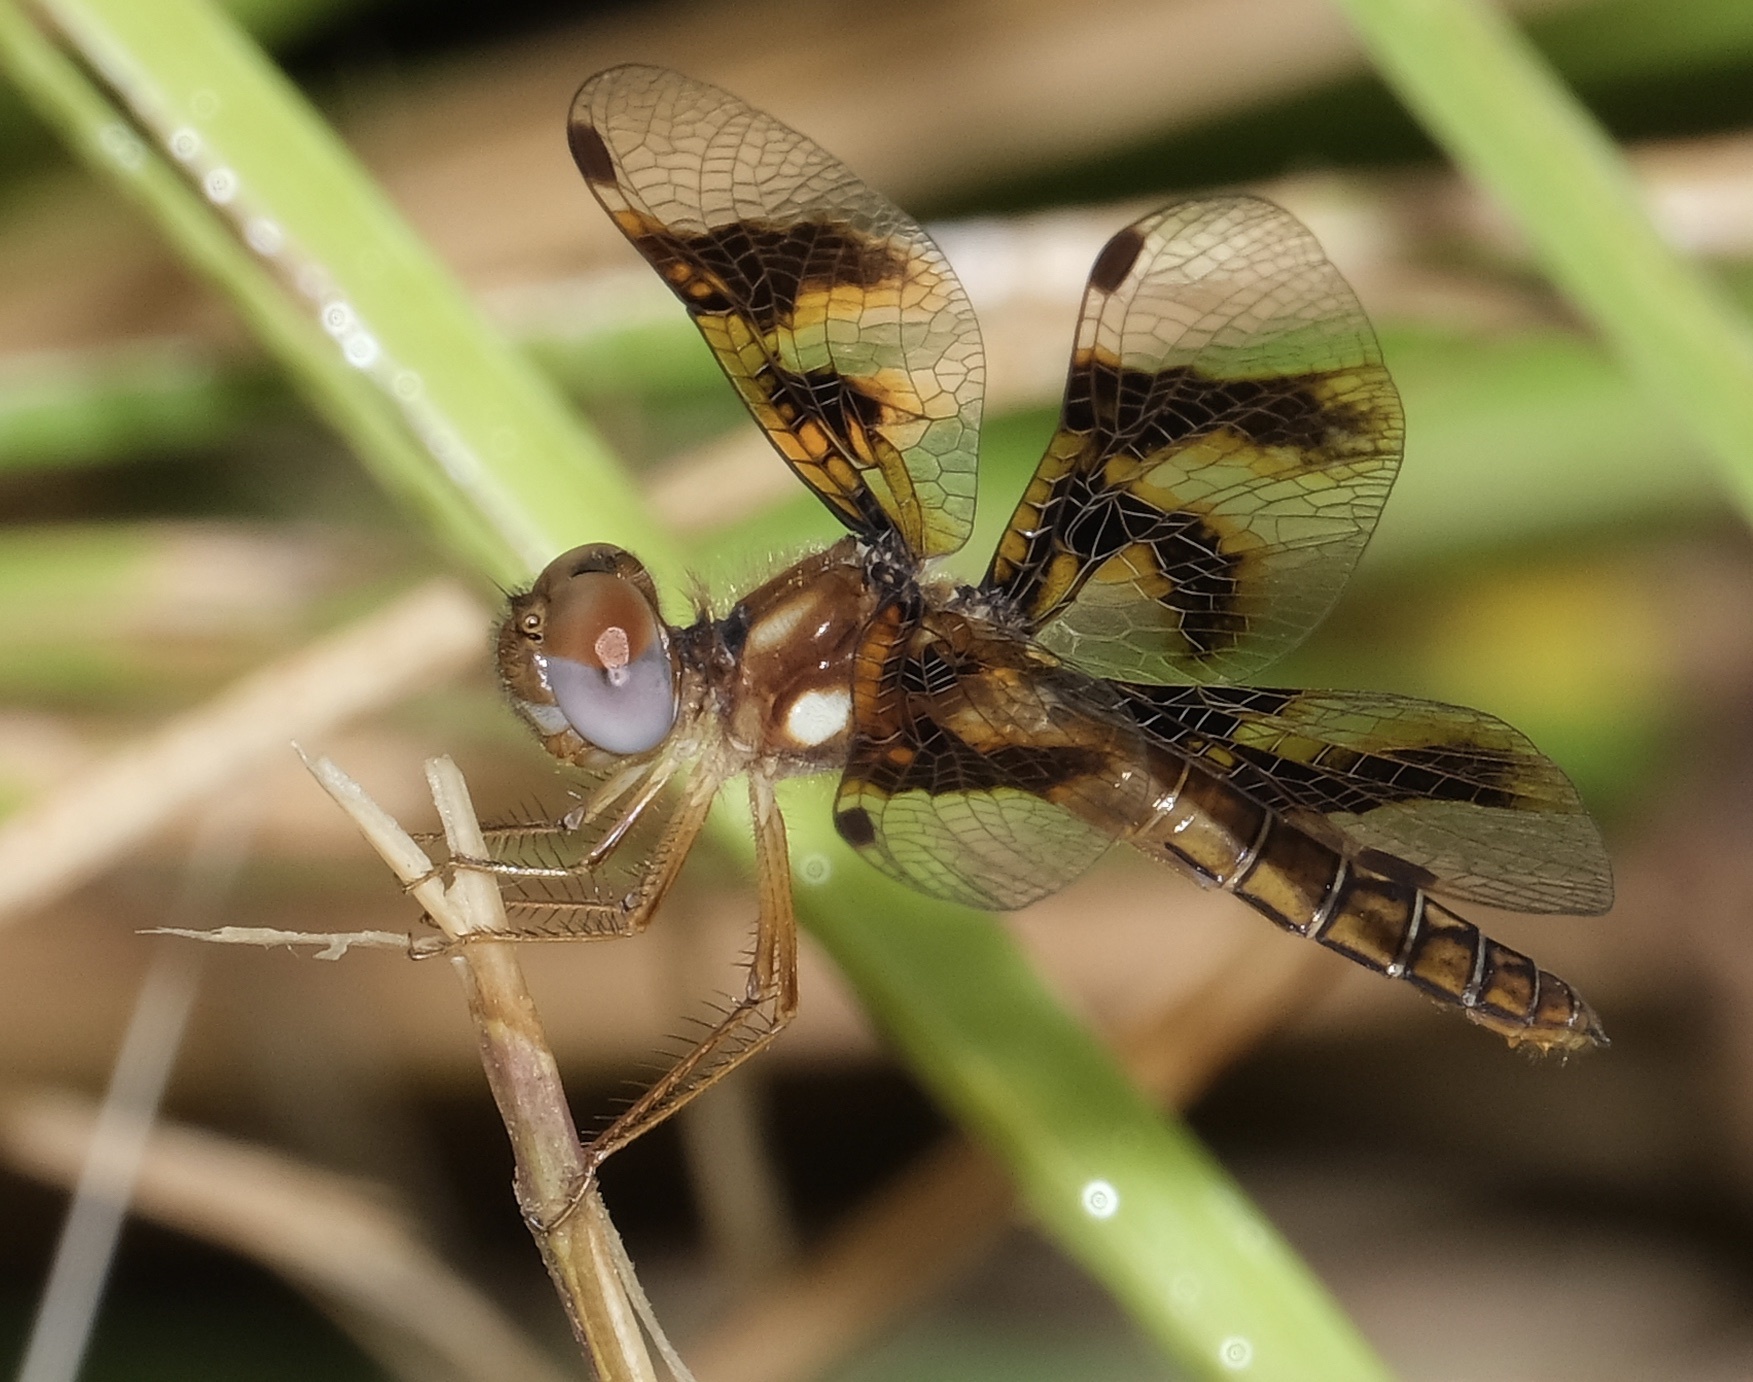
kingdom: Animalia
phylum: Arthropoda
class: Insecta
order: Odonata
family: Libellulidae
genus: Perithemis
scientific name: Perithemis tenera
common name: Eastern amberwing
